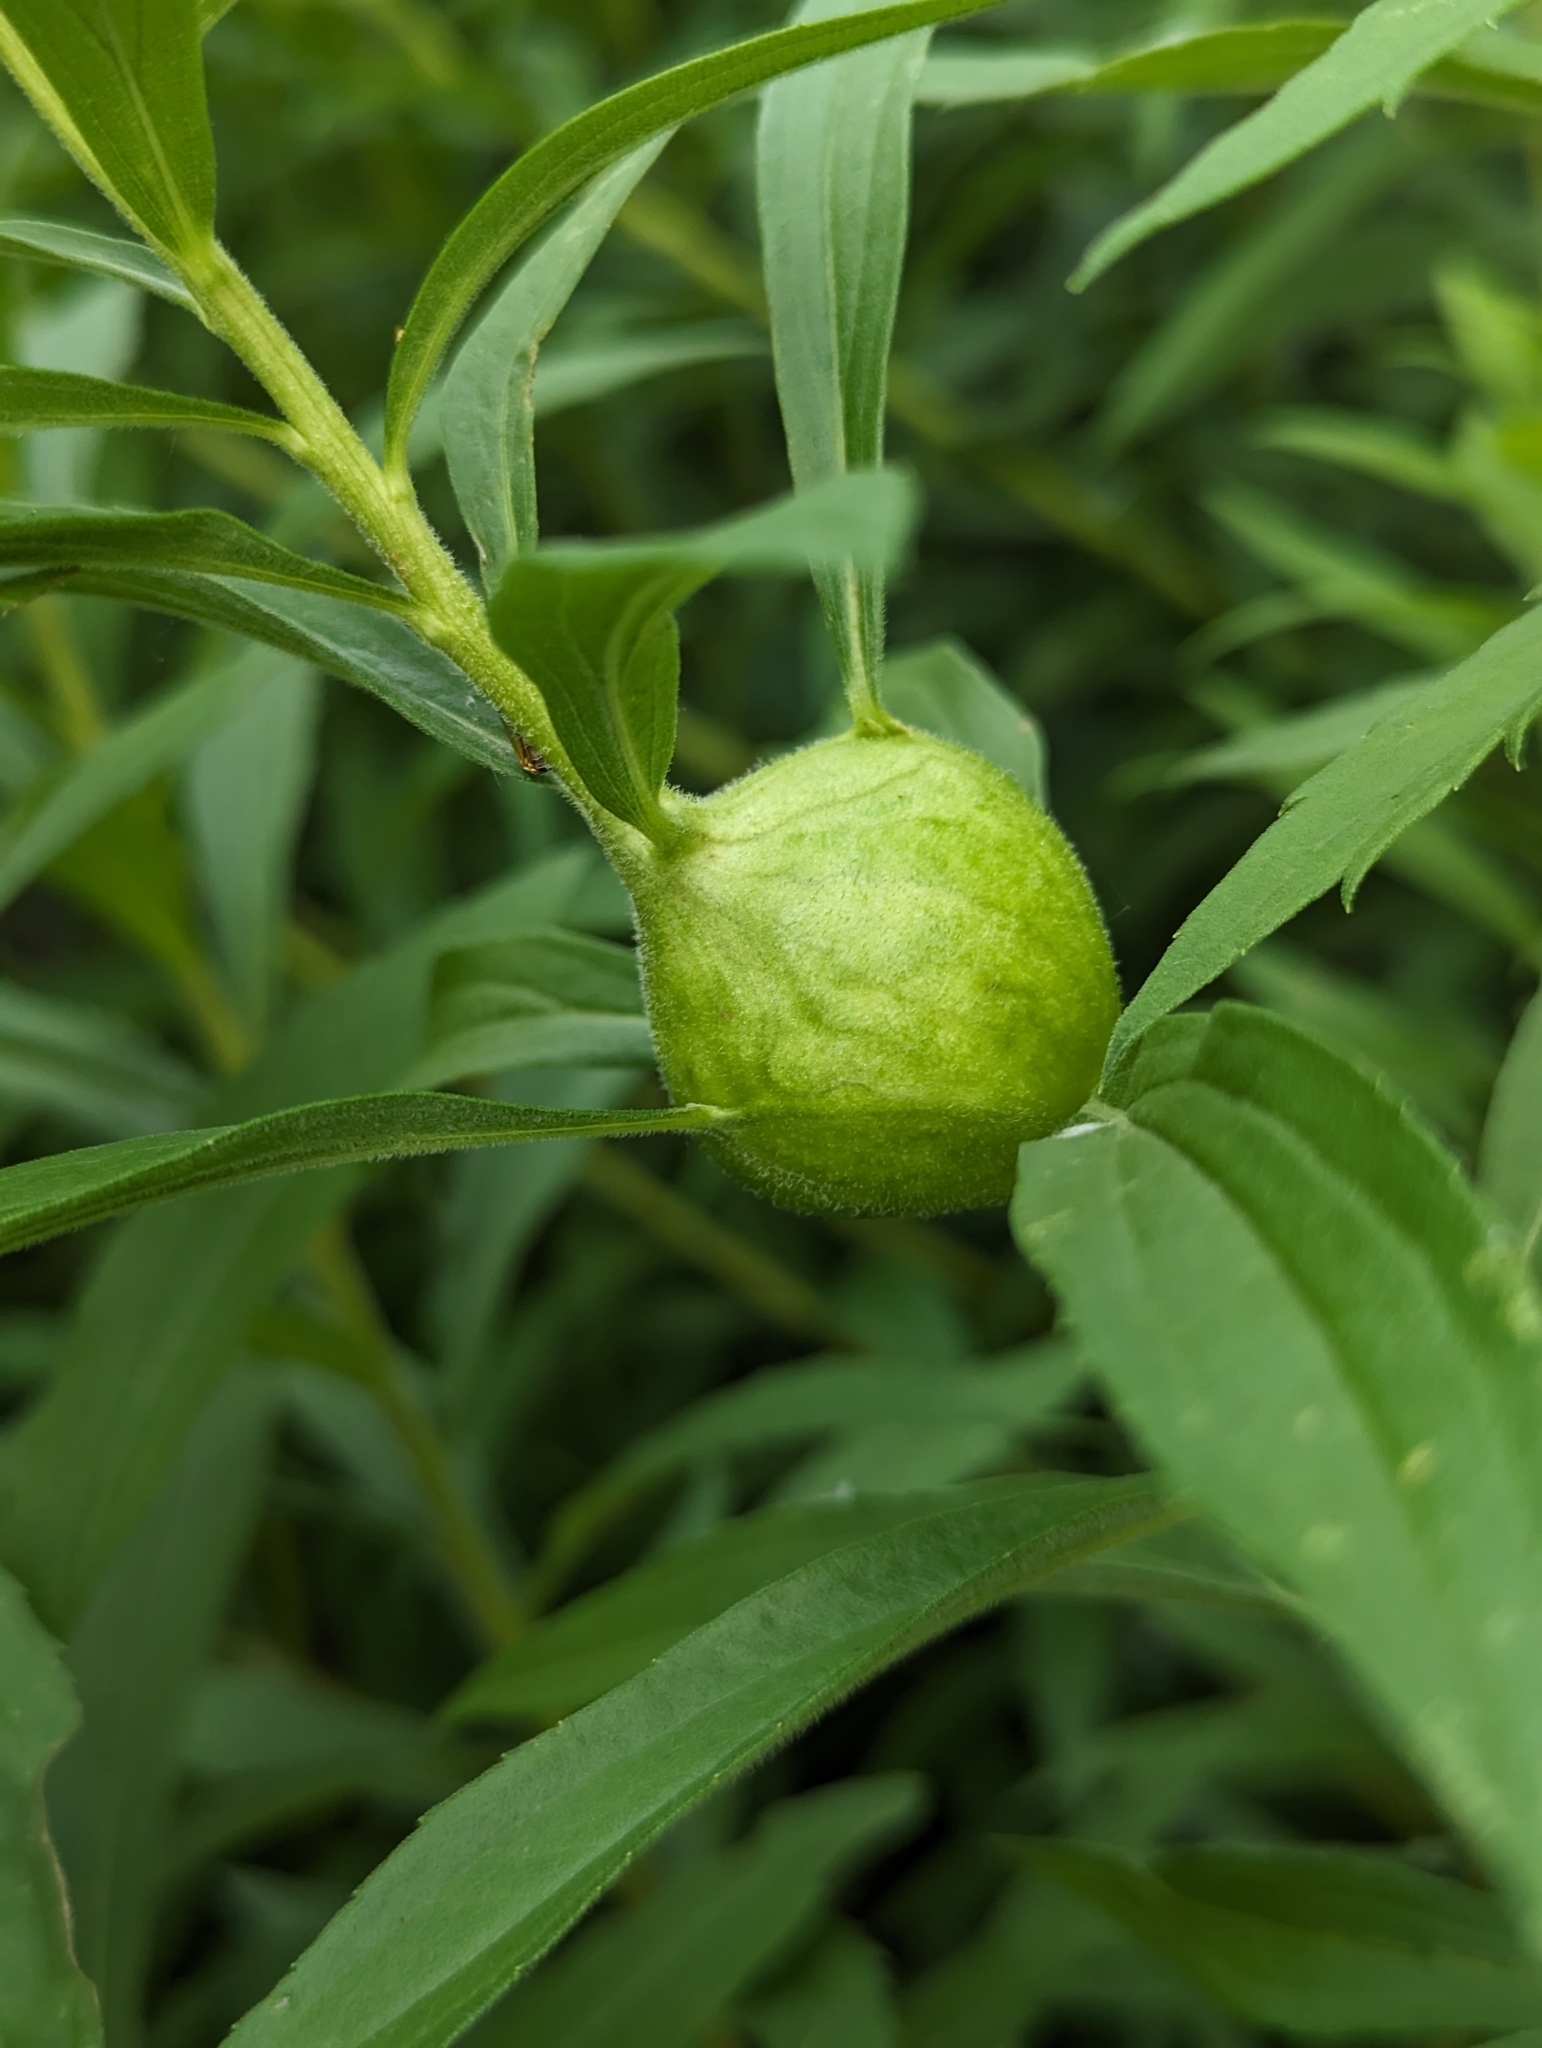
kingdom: Animalia
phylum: Arthropoda
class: Insecta
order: Diptera
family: Tephritidae
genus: Eurosta
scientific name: Eurosta solidaginis
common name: Goldenrod gall fly
